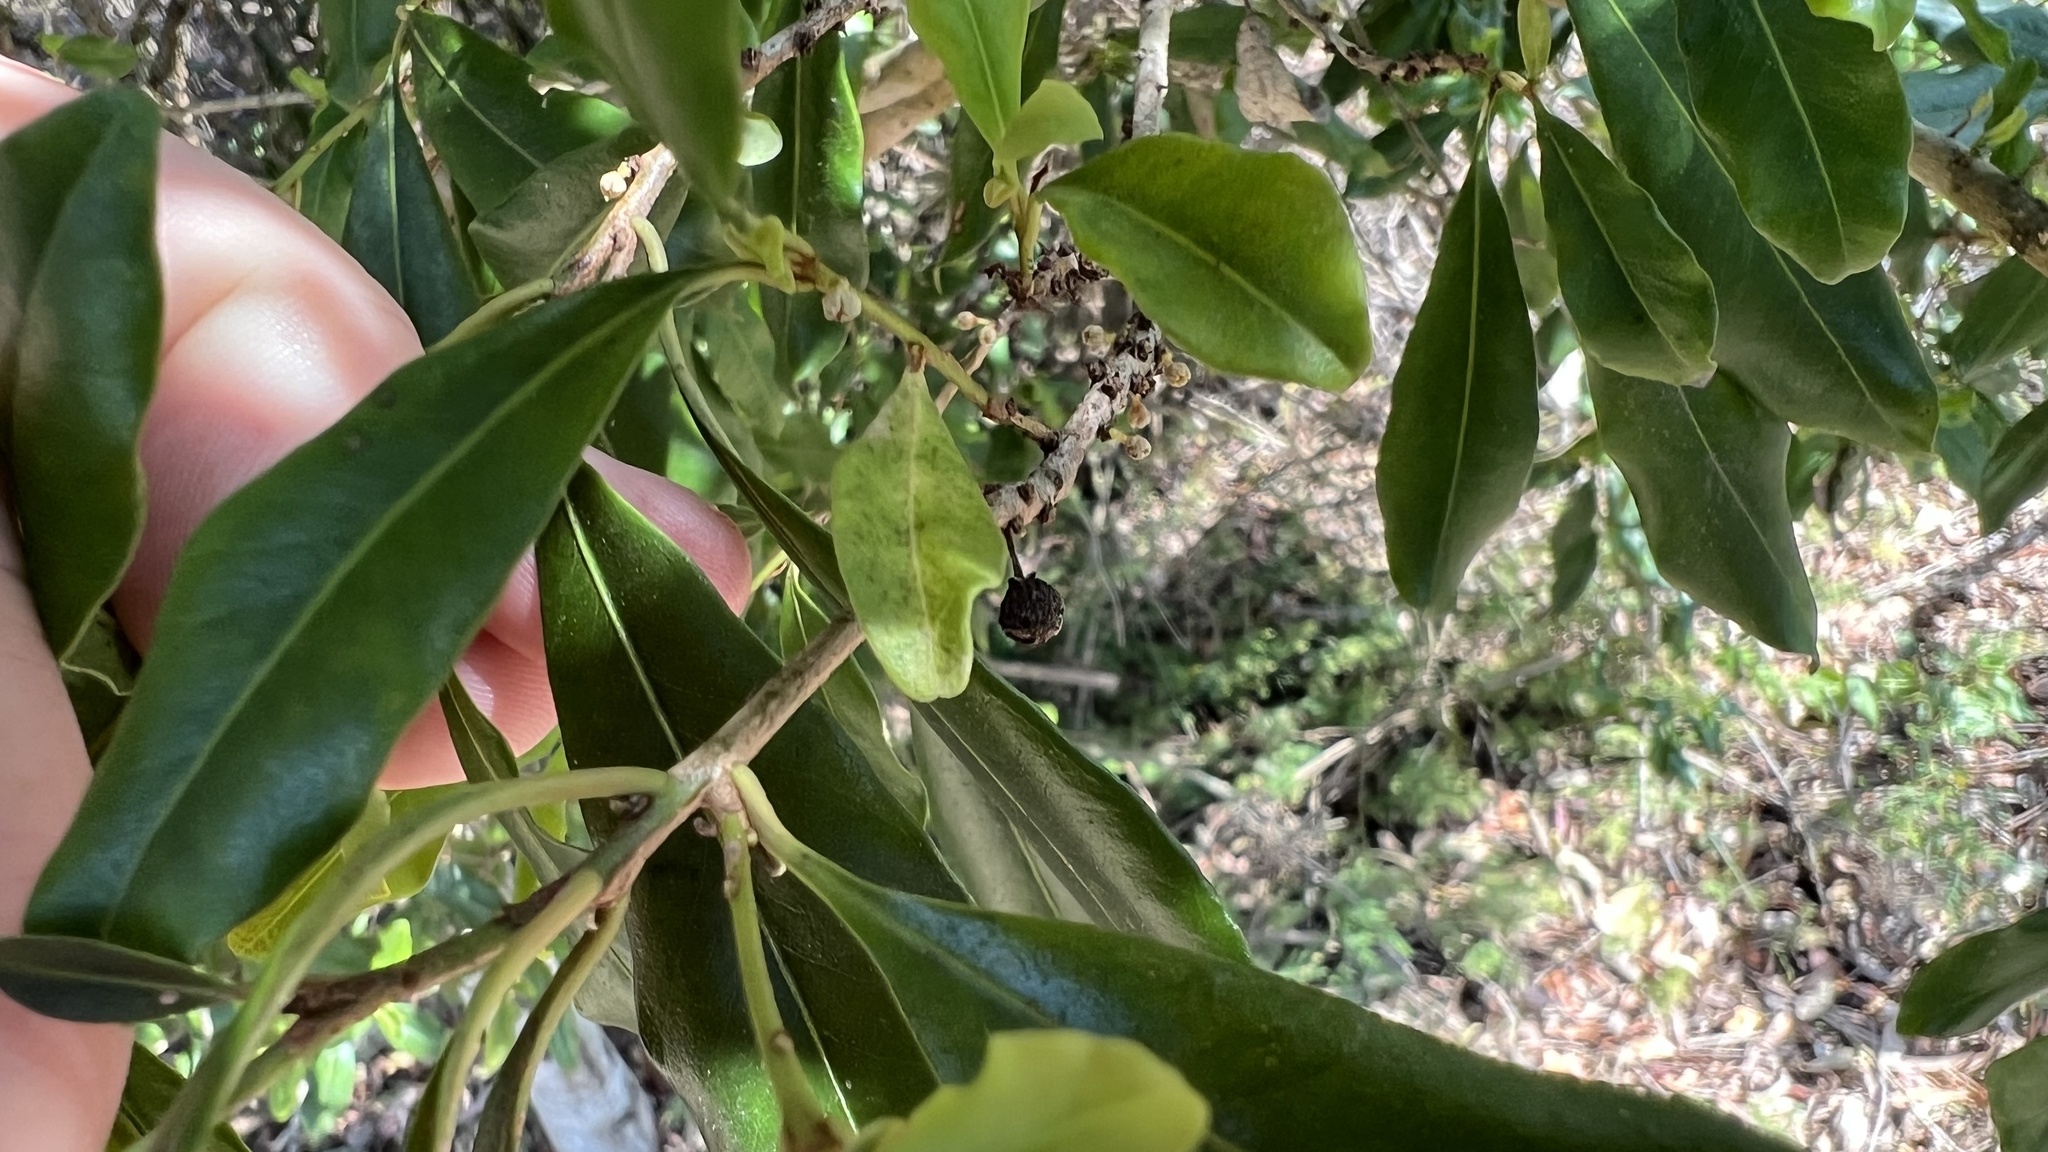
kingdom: Plantae
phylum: Tracheophyta
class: Magnoliopsida
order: Ericales
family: Primulaceae
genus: Myrsine
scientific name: Myrsine variabilis
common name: Brush muttonwood
